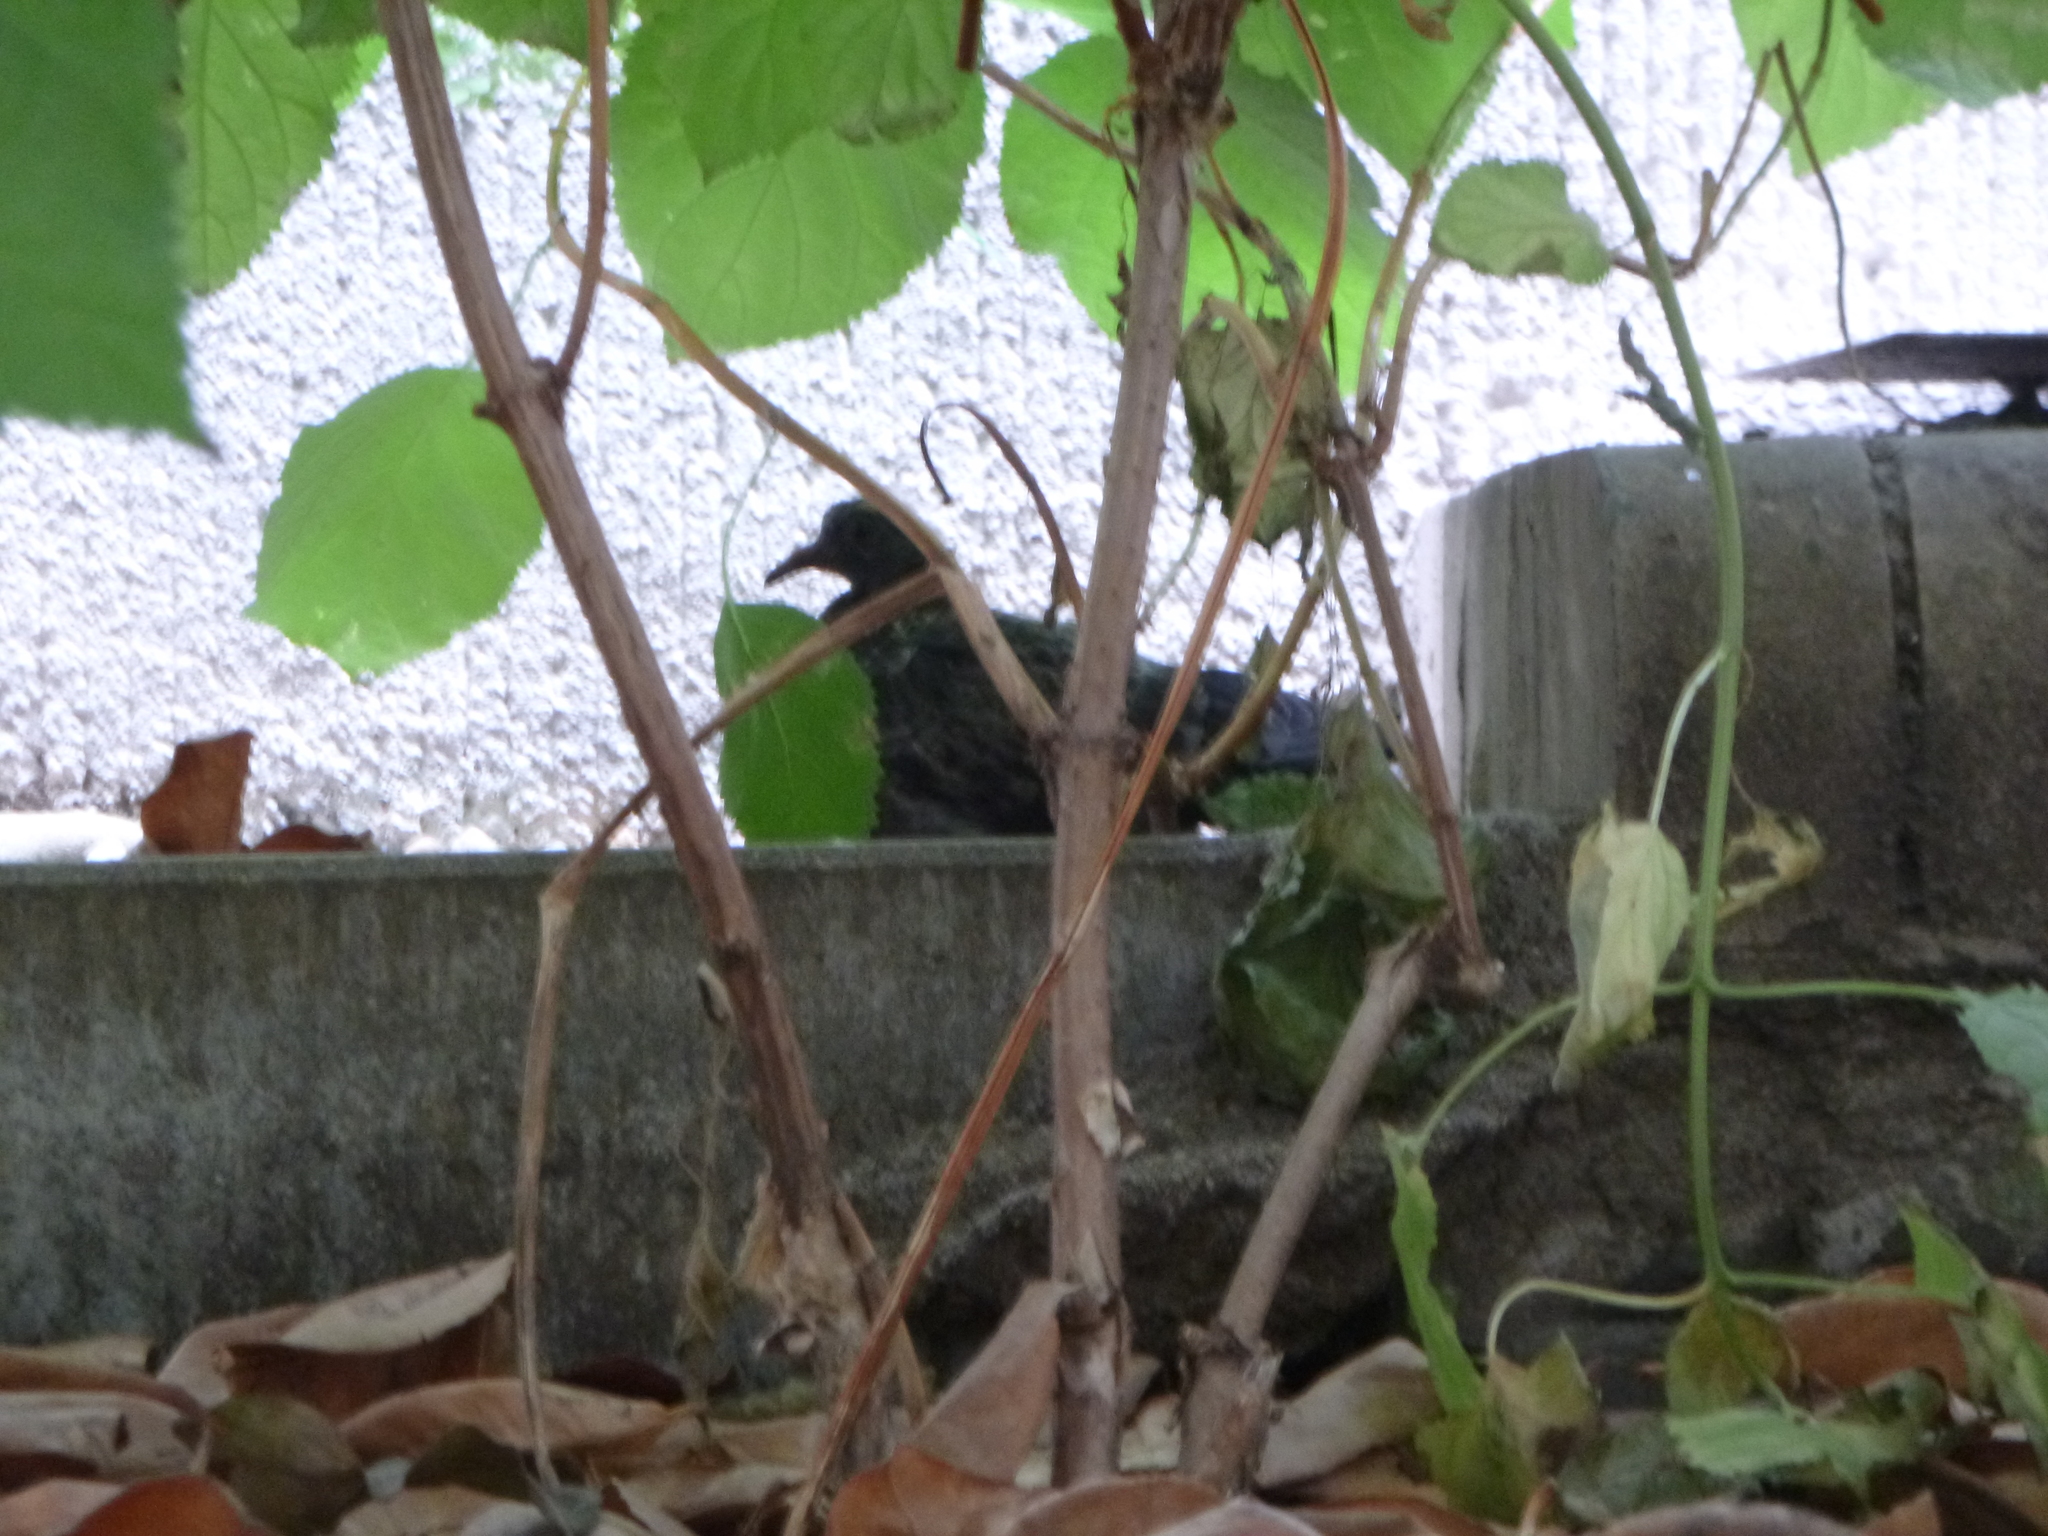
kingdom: Animalia
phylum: Chordata
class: Aves
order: Columbiformes
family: Columbidae
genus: Columba
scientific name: Columba livia
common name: Rock pigeon
